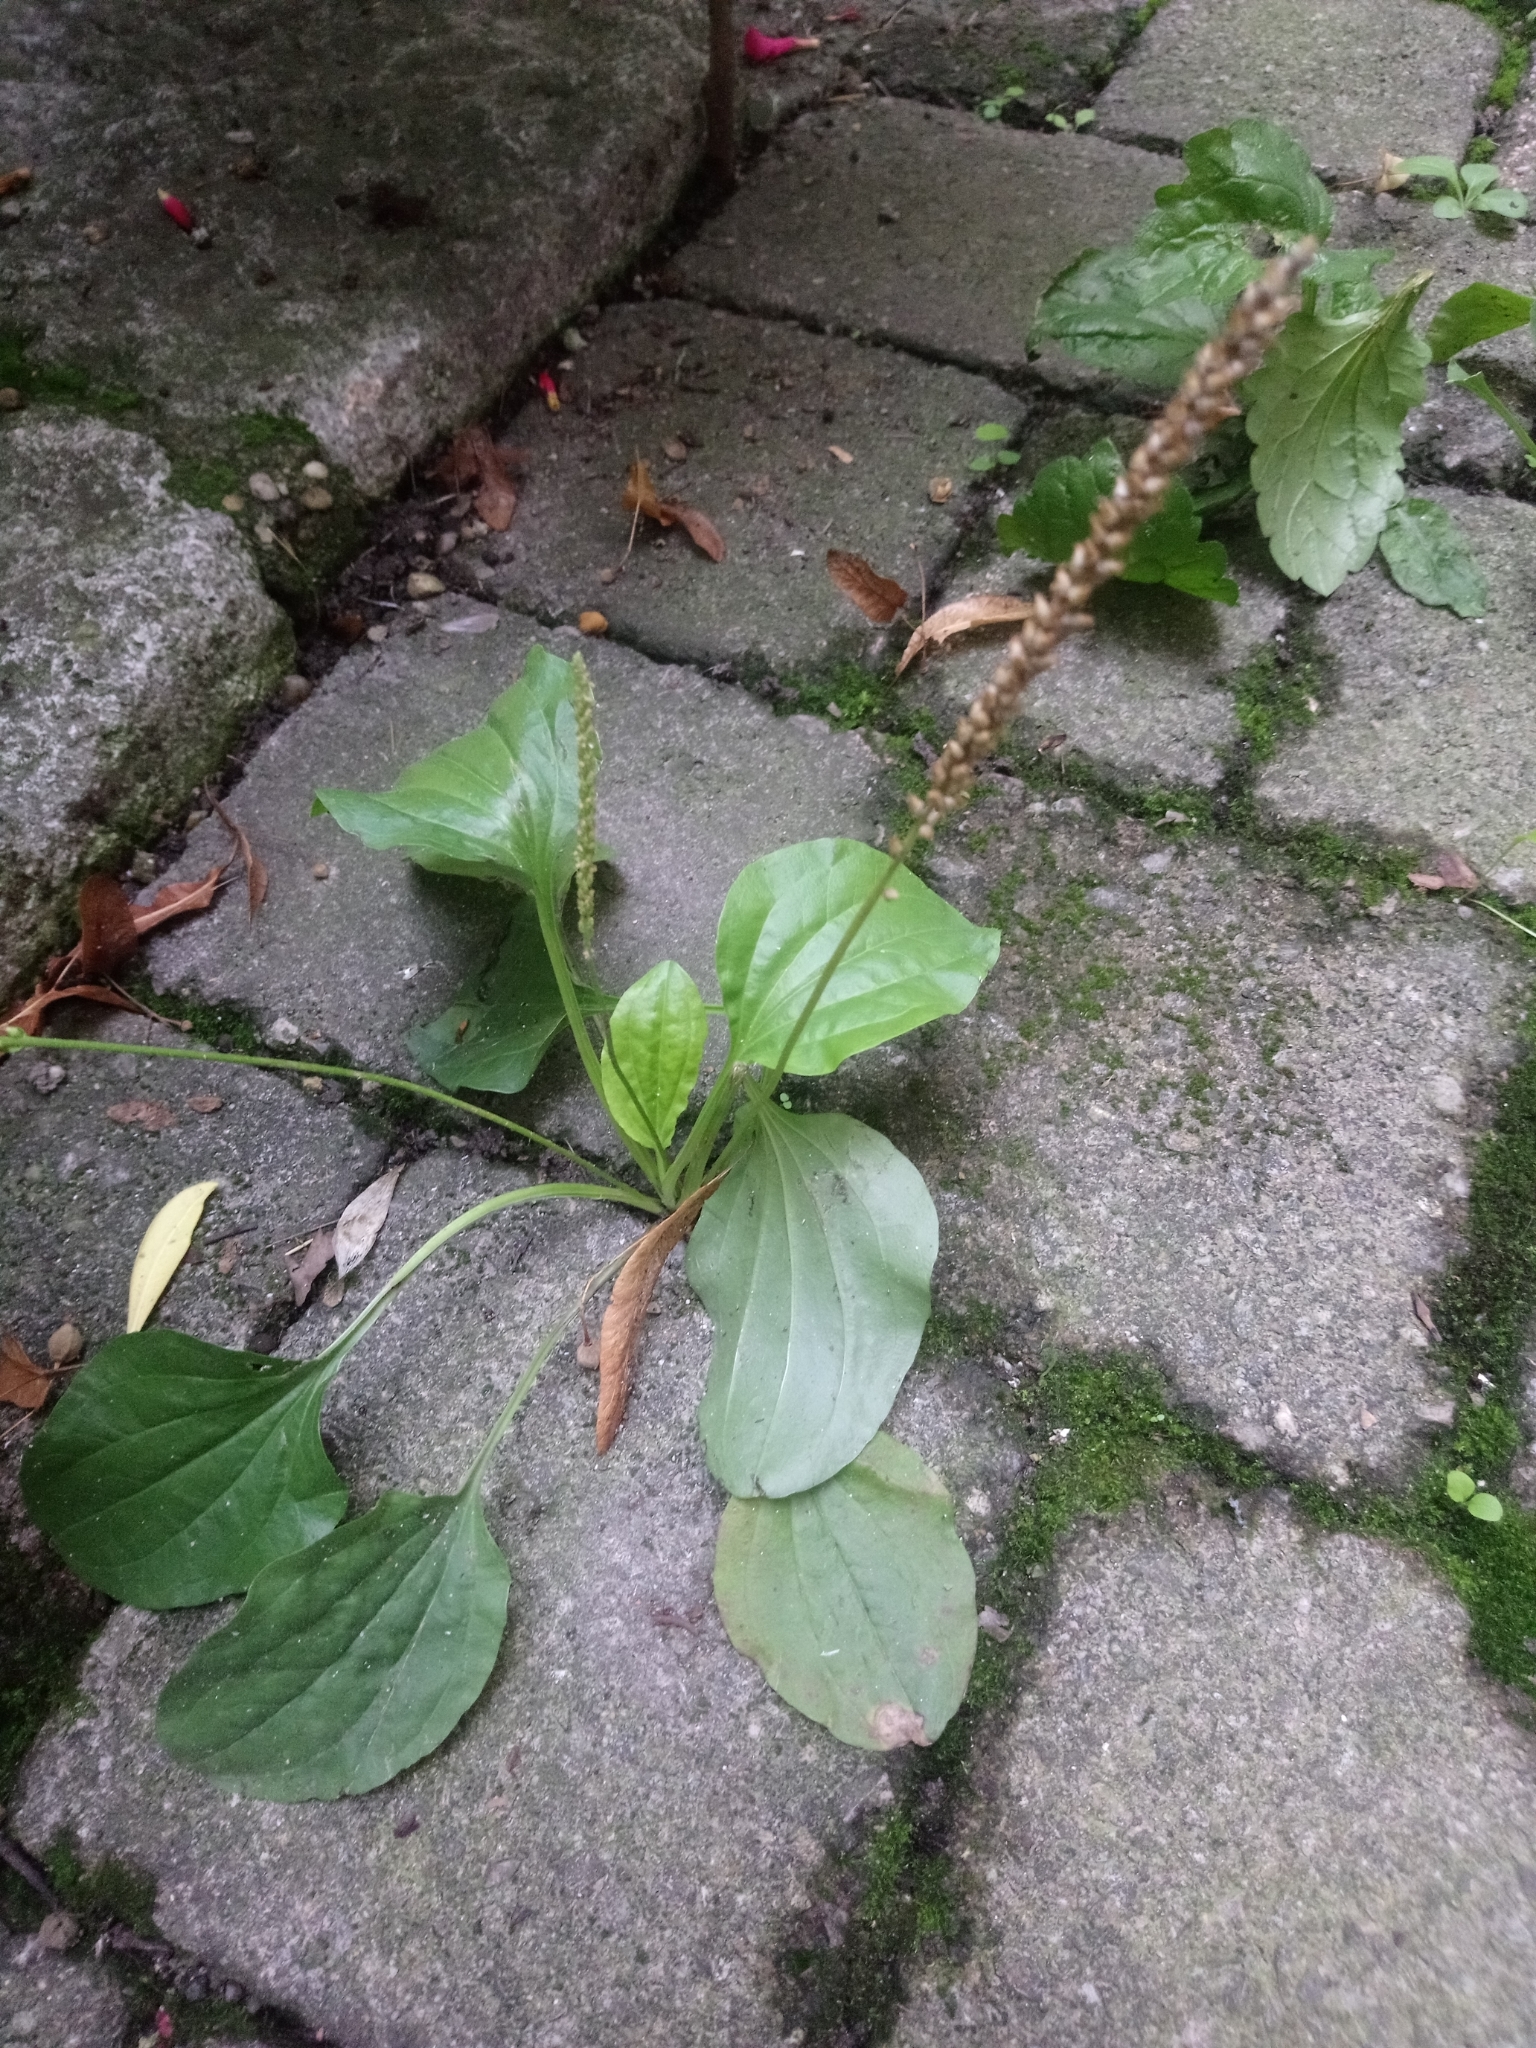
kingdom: Plantae
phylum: Tracheophyta
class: Magnoliopsida
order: Lamiales
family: Plantaginaceae
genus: Plantago
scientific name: Plantago major
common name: Common plantain
